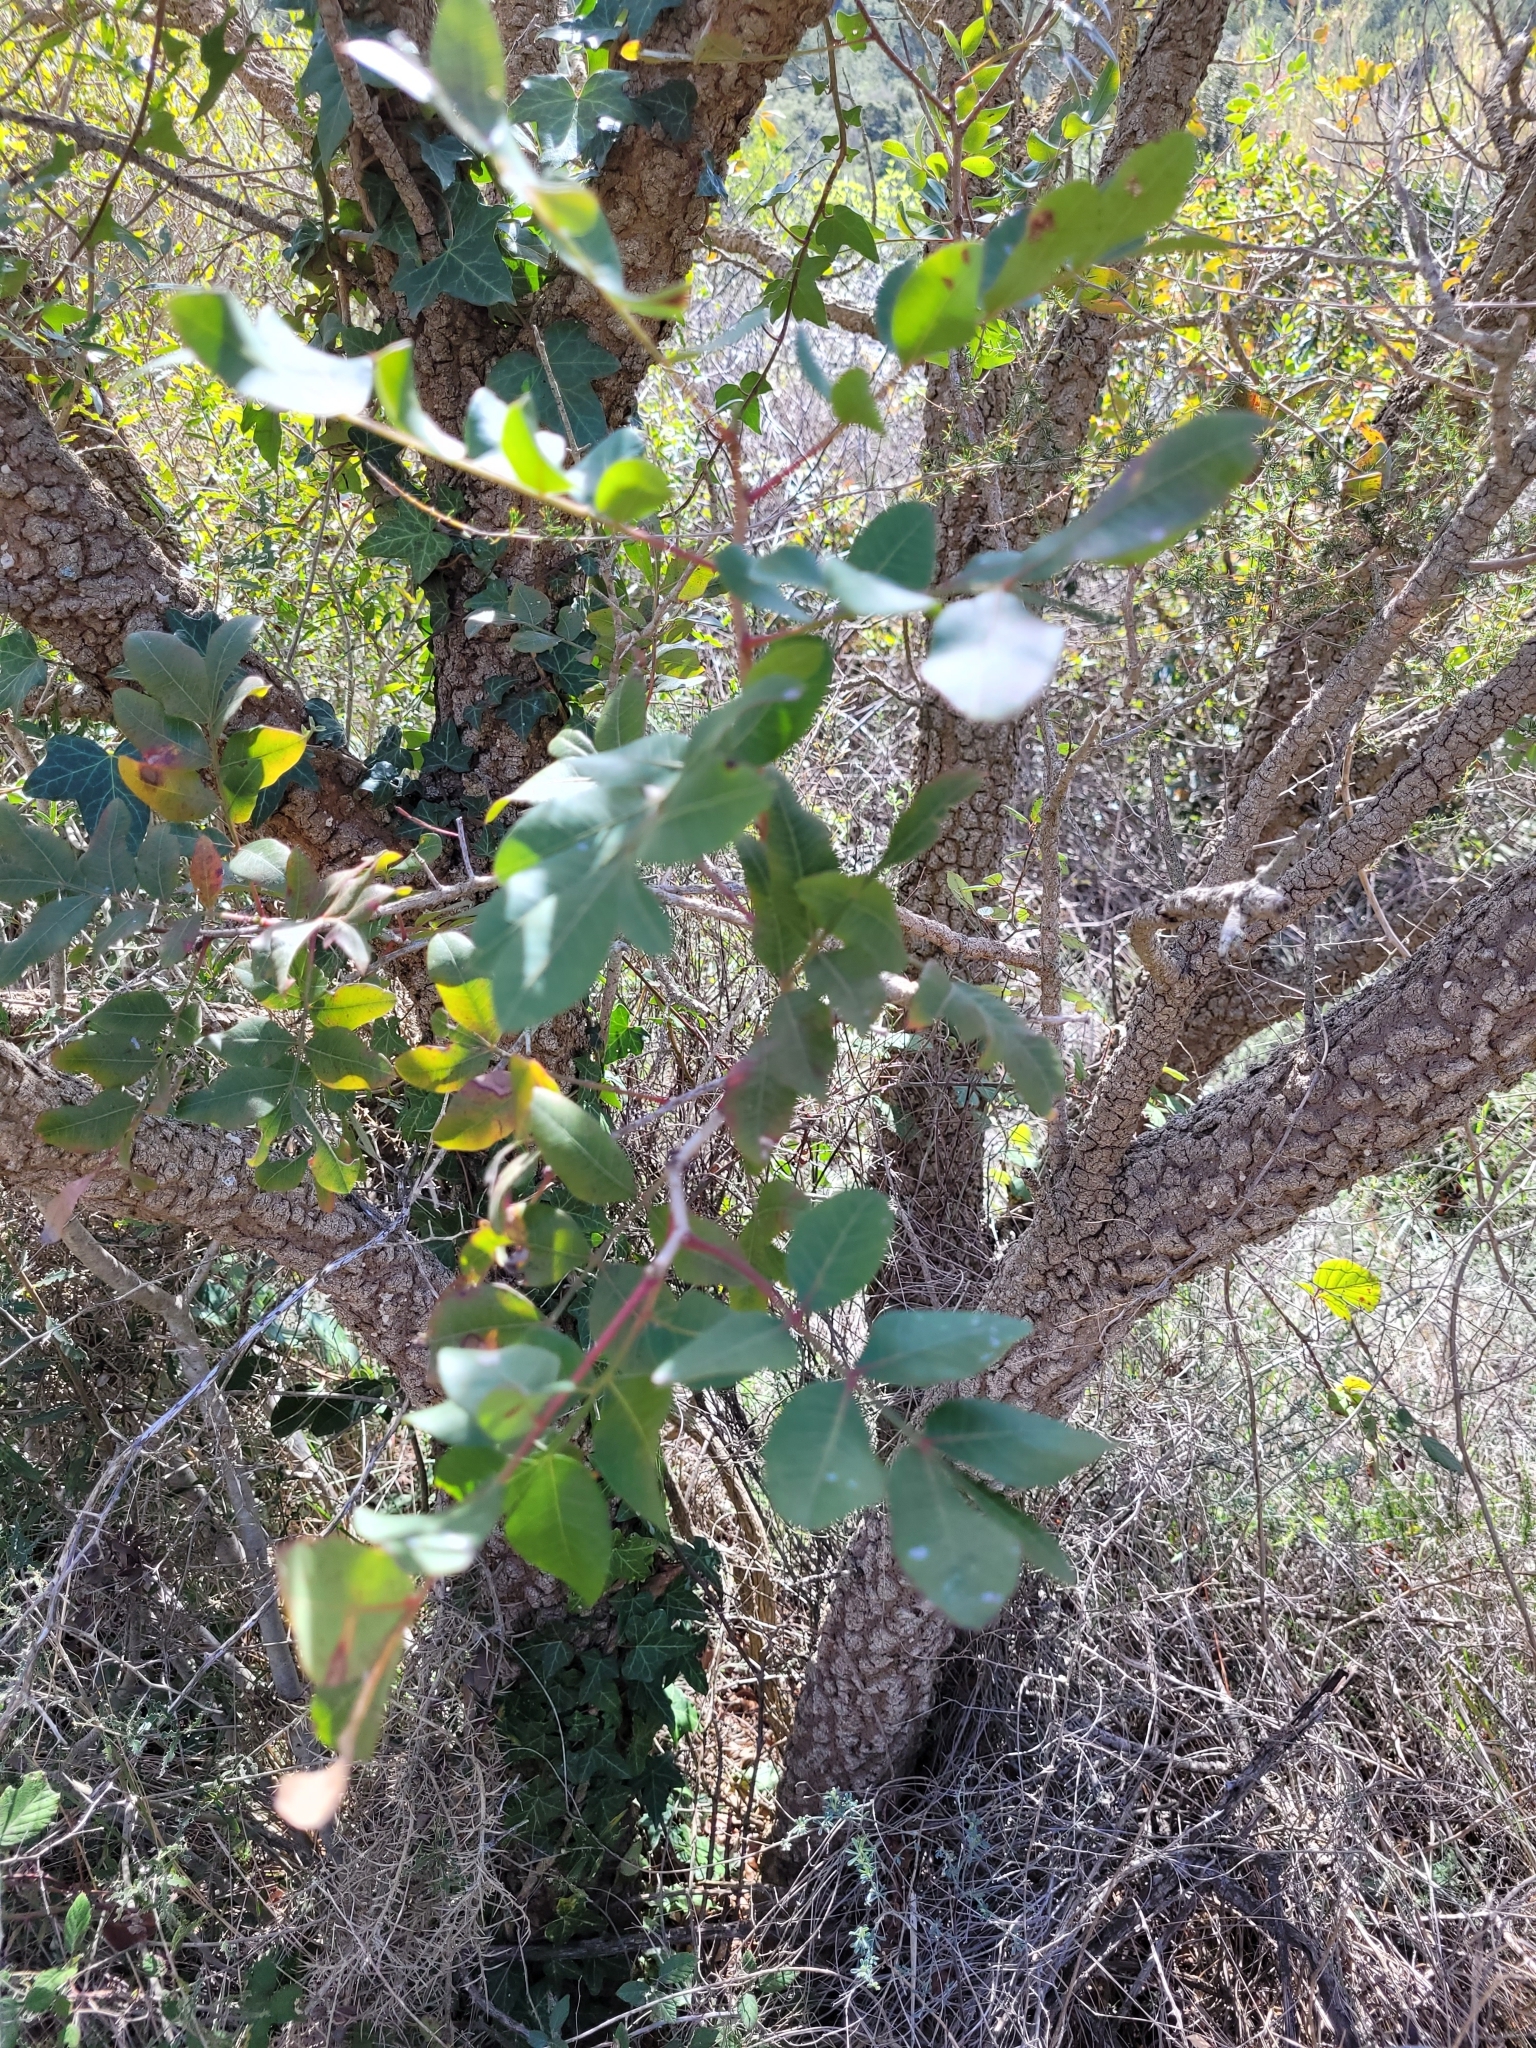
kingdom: Plantae
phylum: Tracheophyta
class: Magnoliopsida
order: Sapindales
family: Anacardiaceae
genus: Pistacia
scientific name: Pistacia saportae
